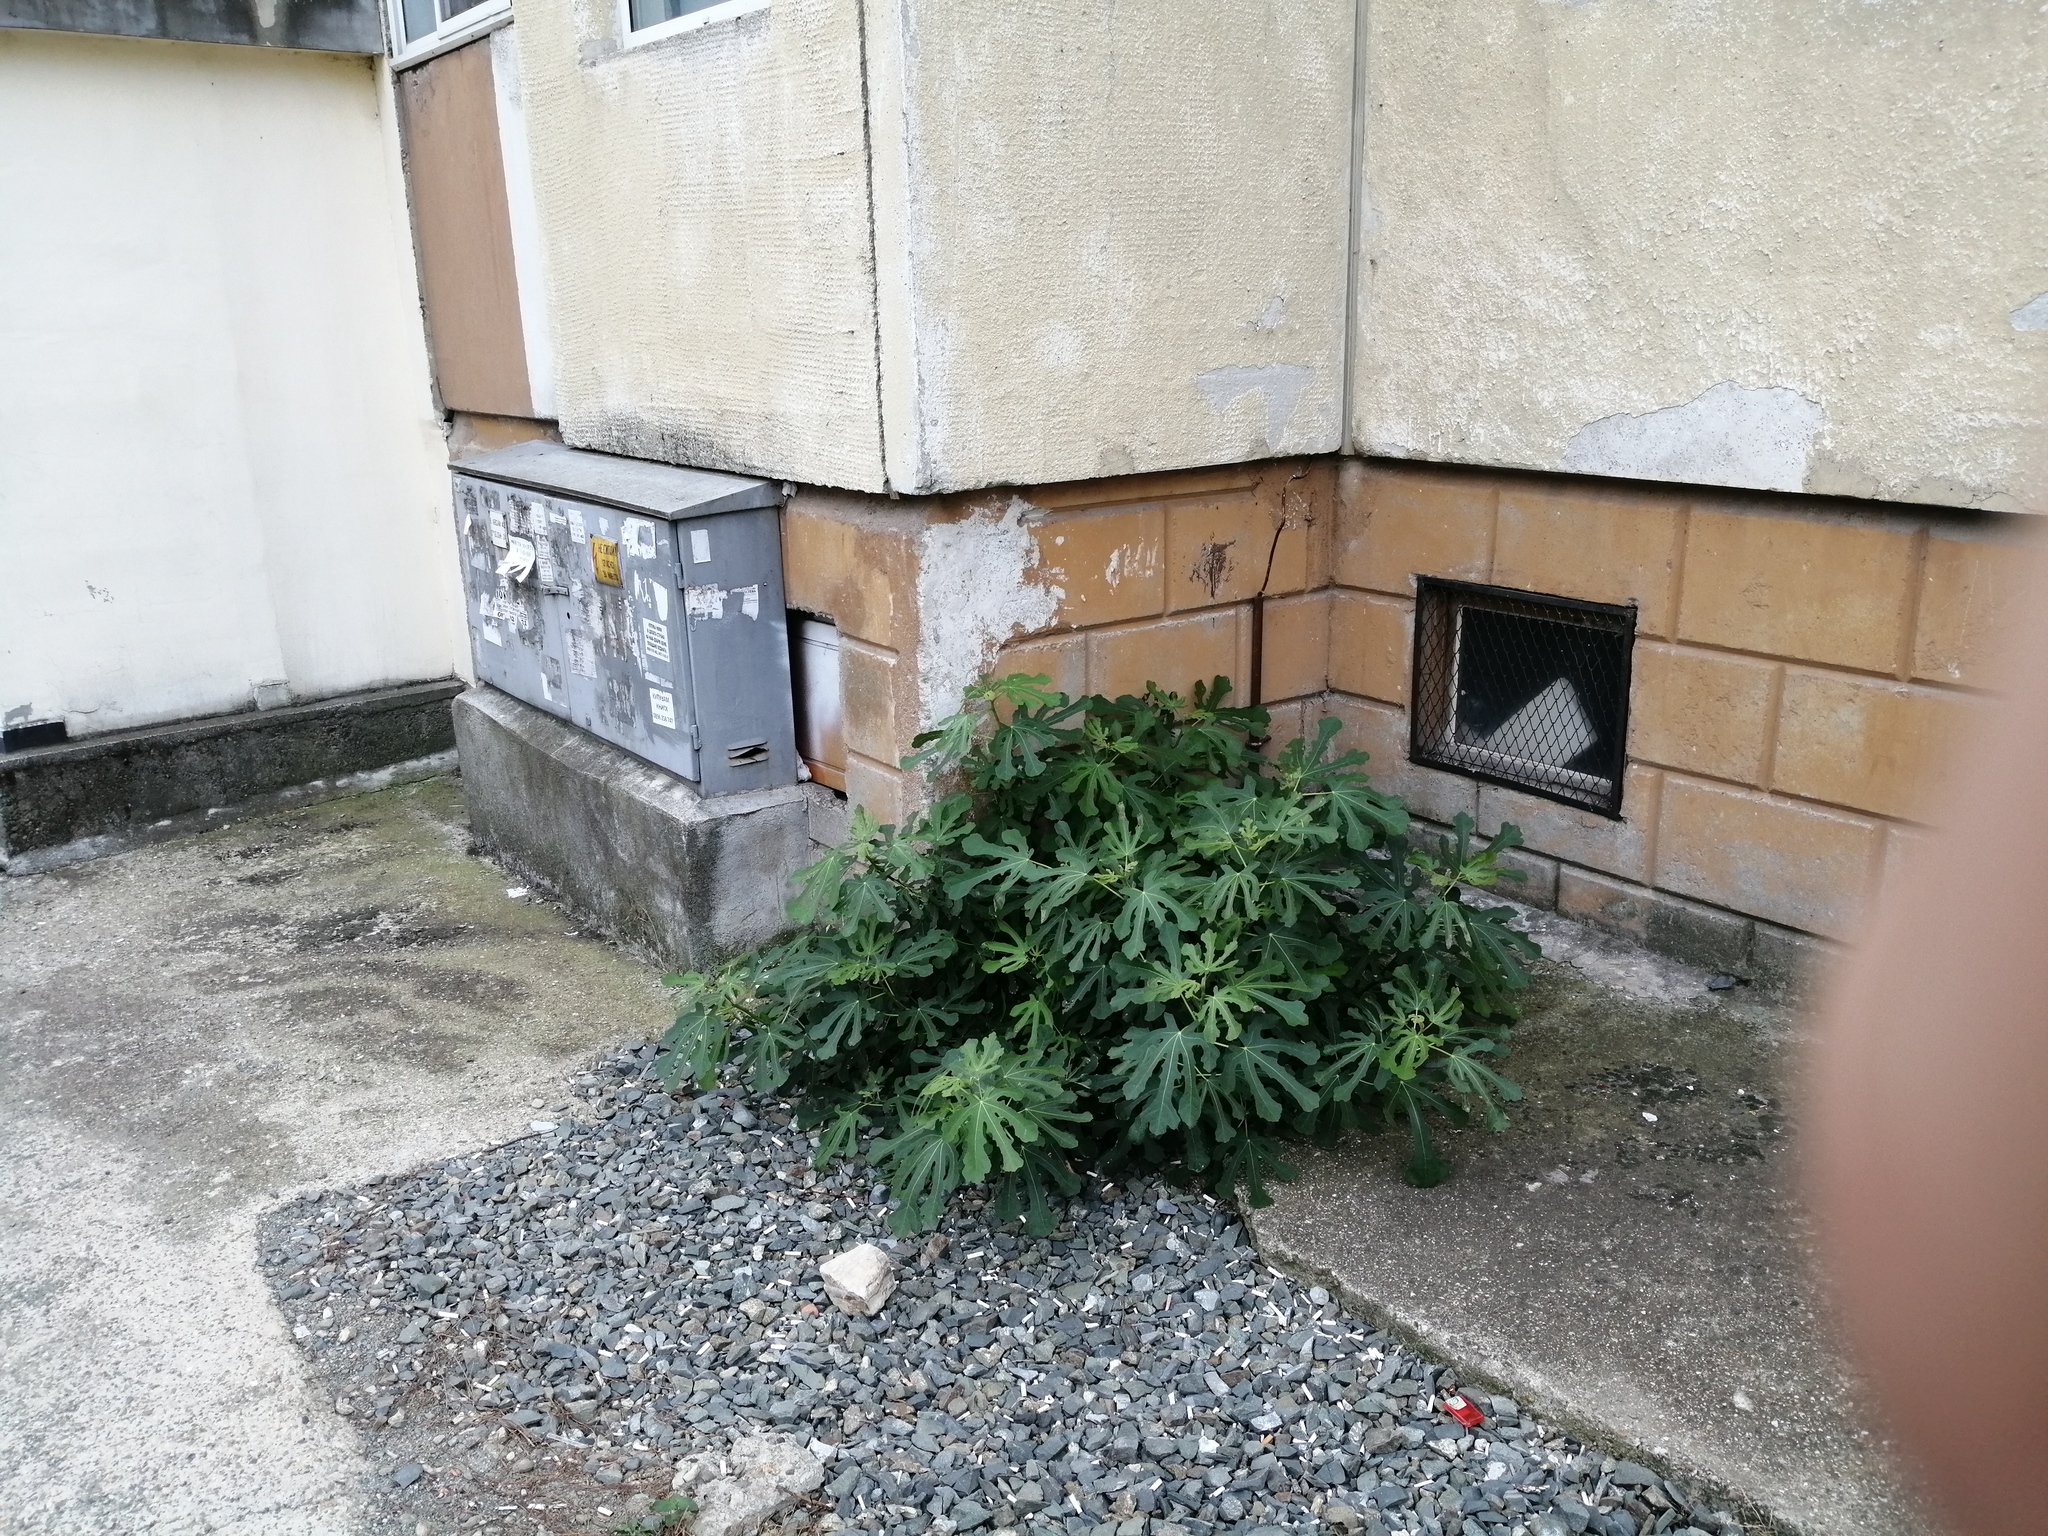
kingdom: Plantae
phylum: Tracheophyta
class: Magnoliopsida
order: Rosales
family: Moraceae
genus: Ficus
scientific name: Ficus carica
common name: Fig
